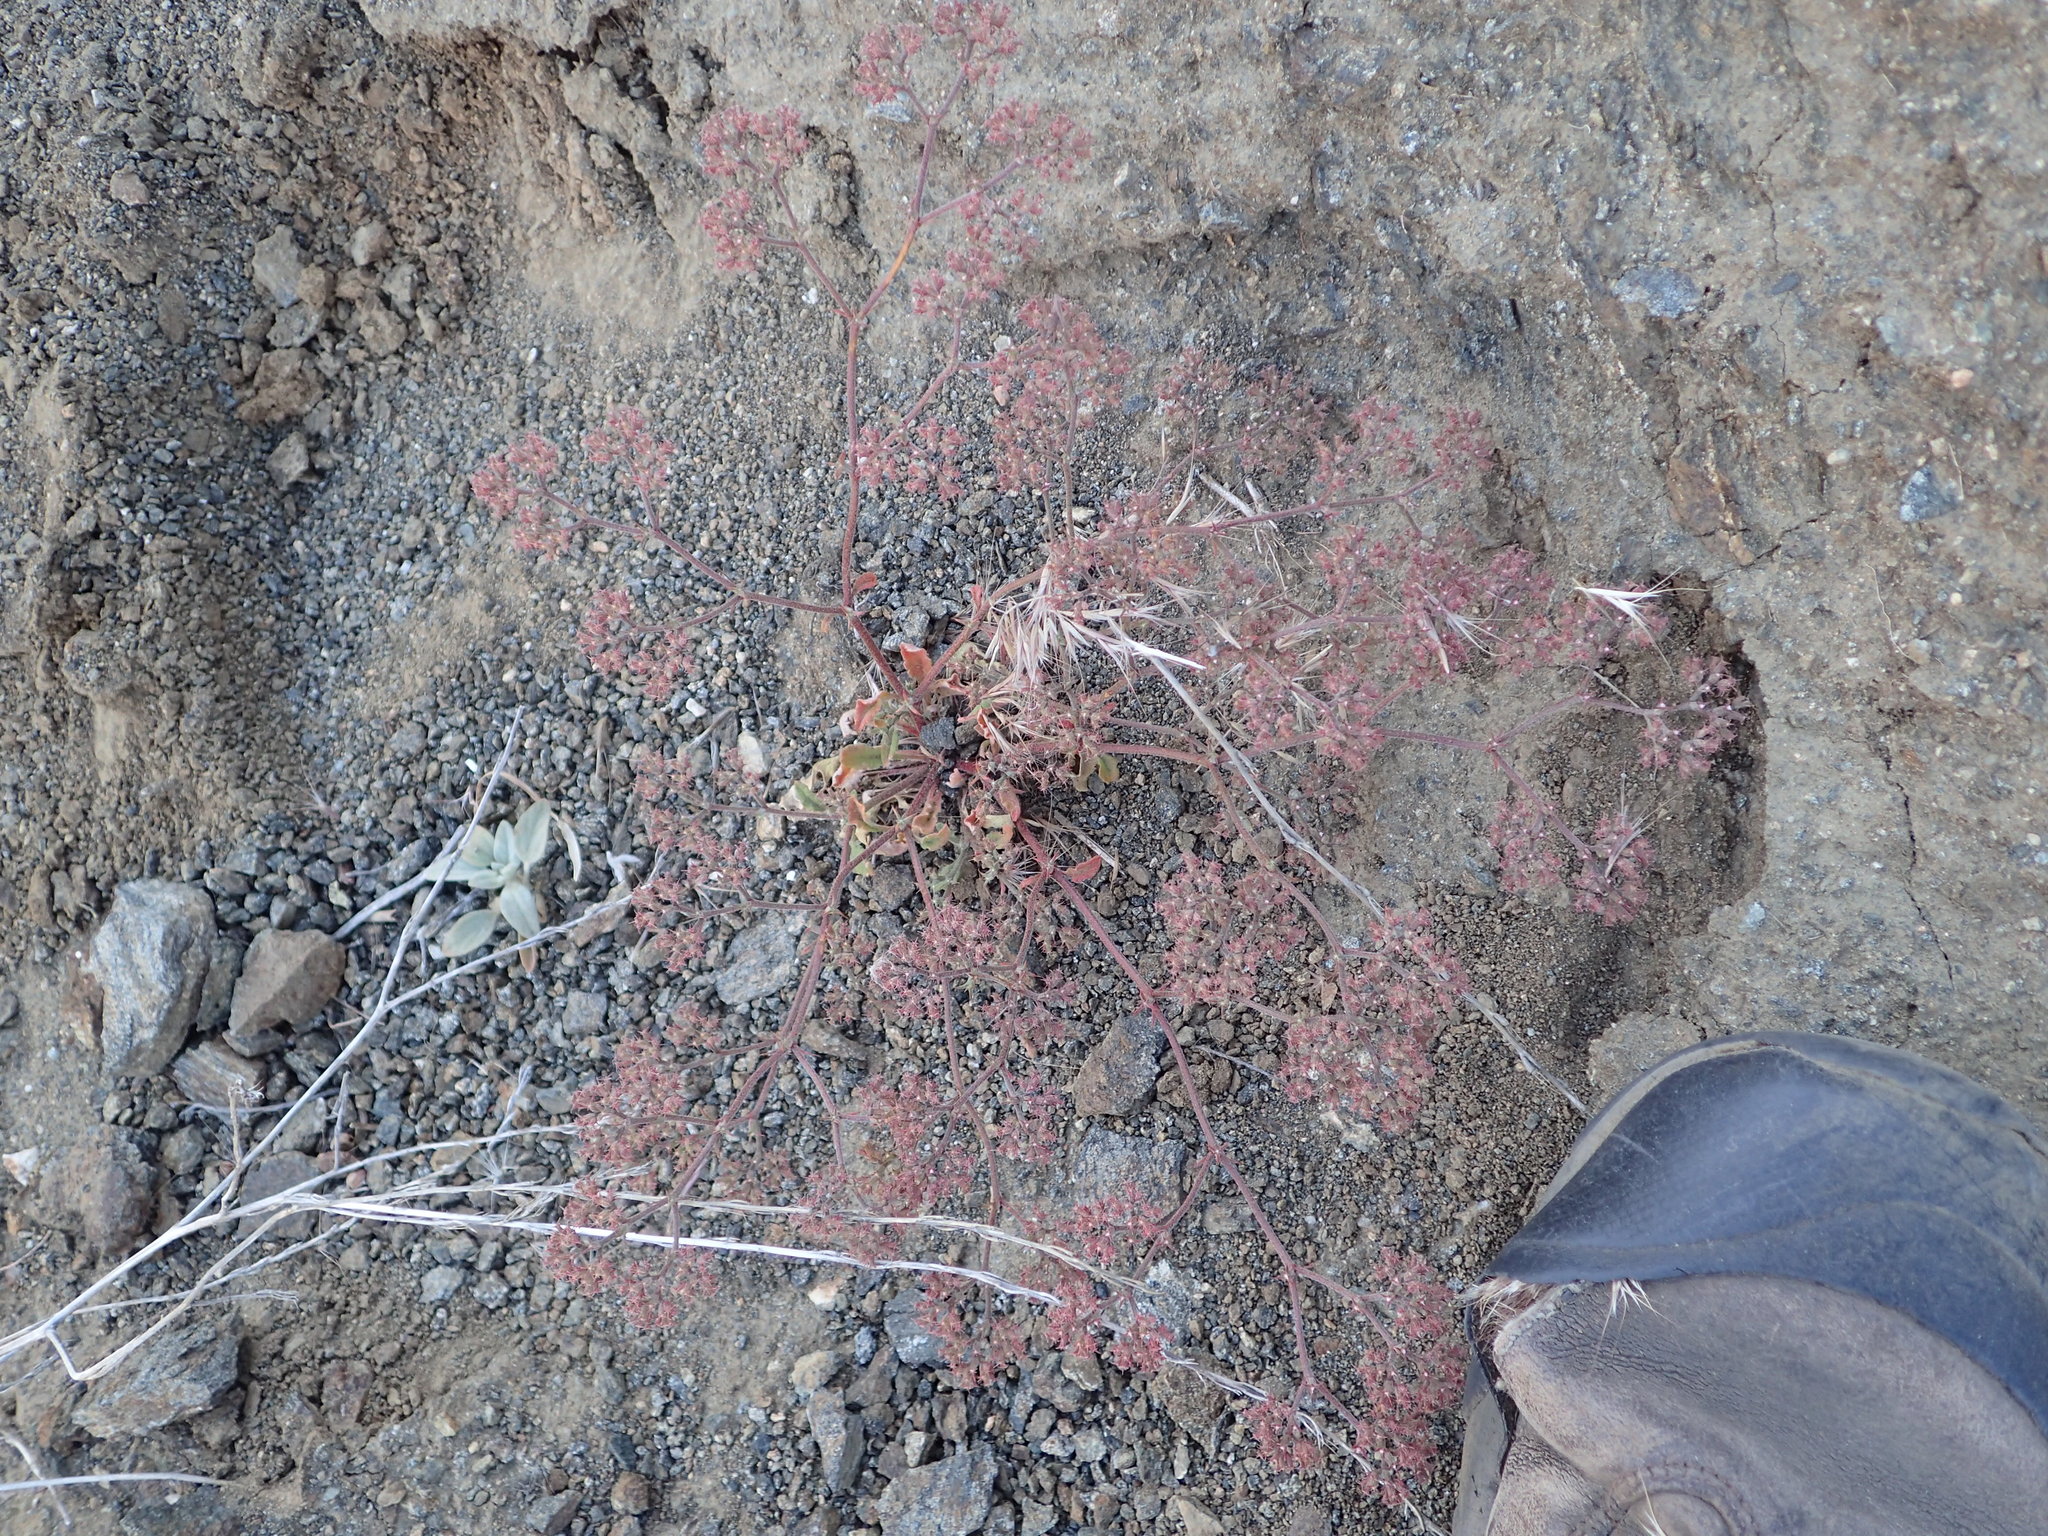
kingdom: Plantae
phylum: Tracheophyta
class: Magnoliopsida
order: Caryophyllales
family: Polygonaceae
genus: Chorizanthe
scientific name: Chorizanthe xanti
